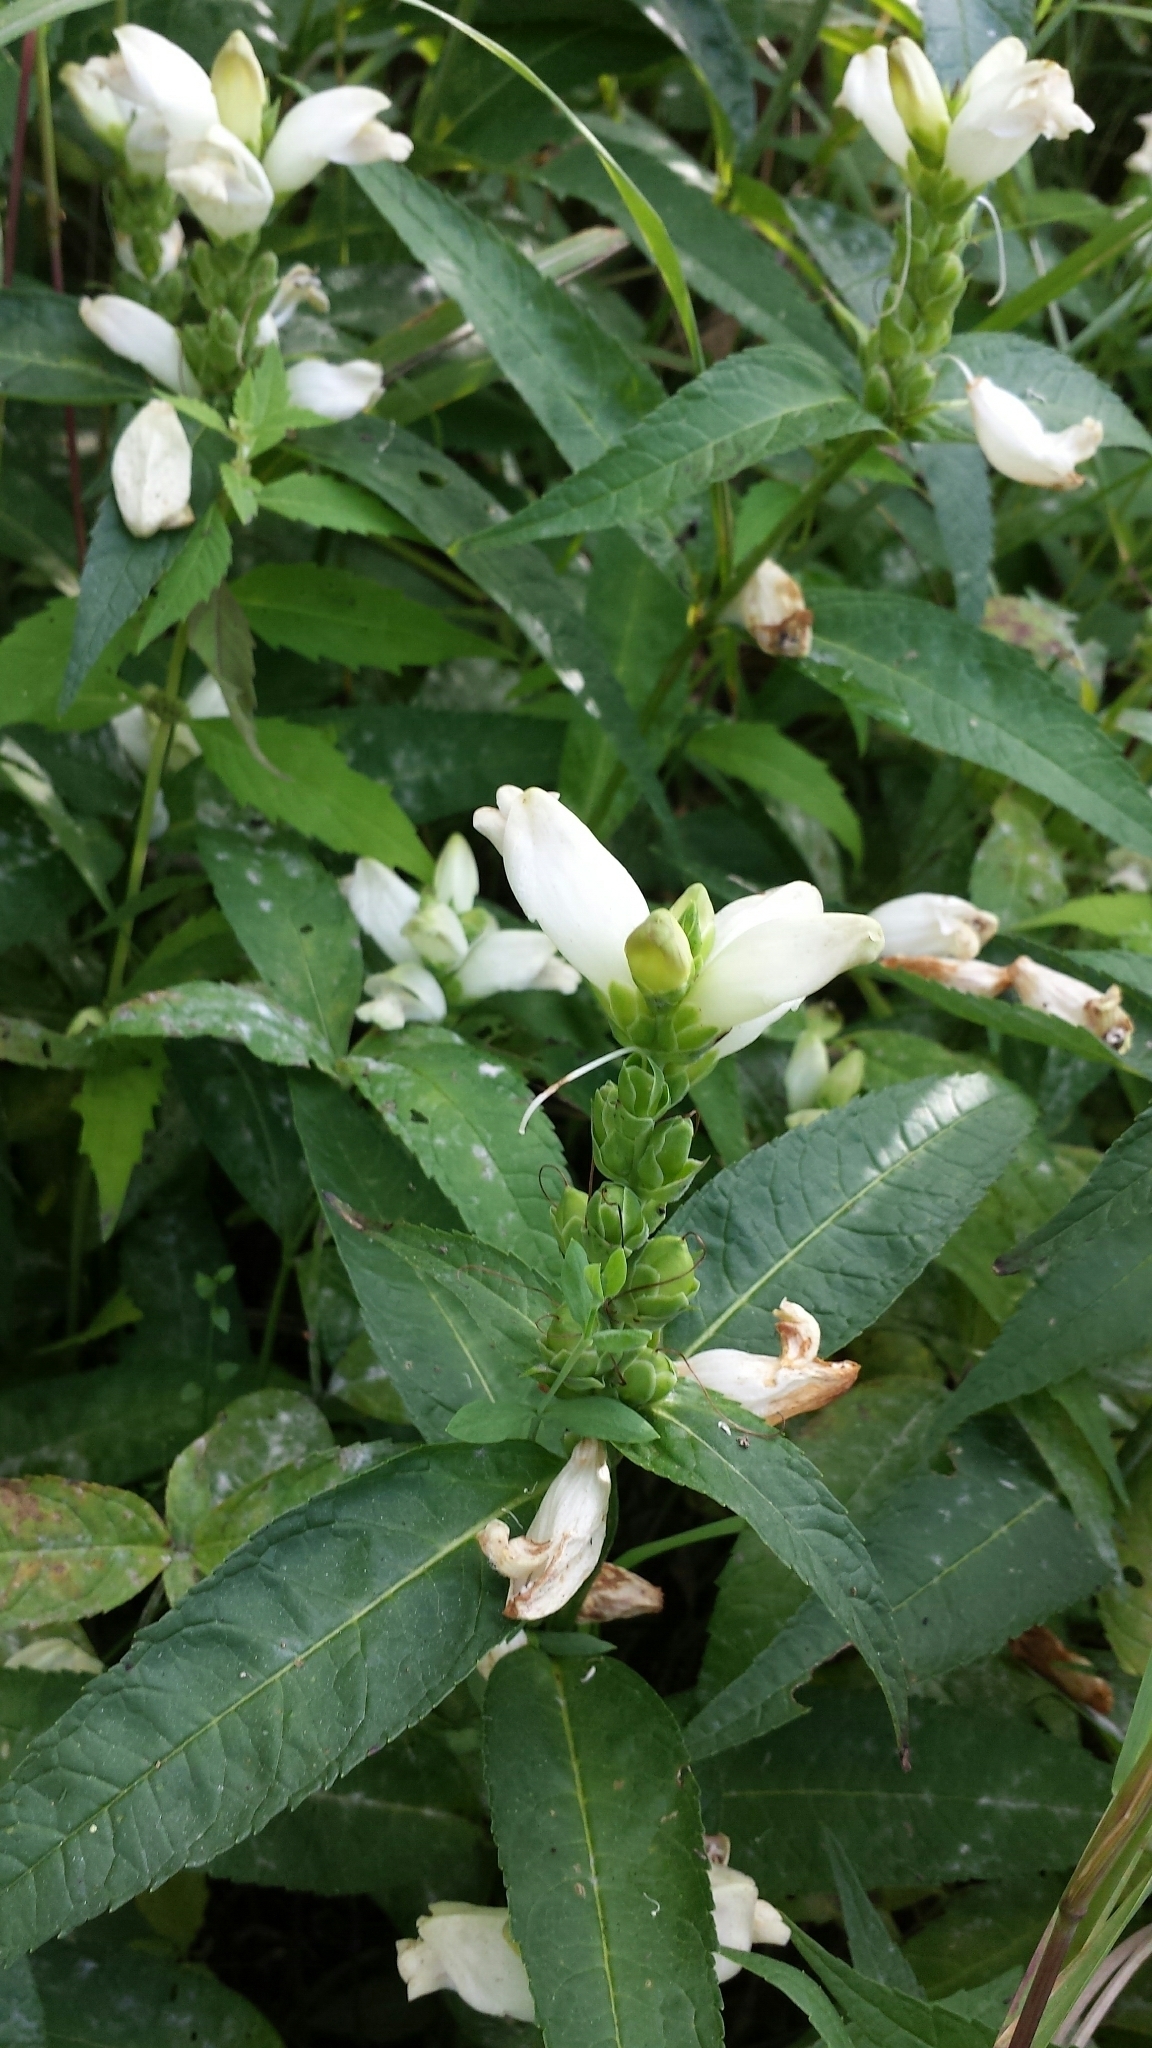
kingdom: Plantae
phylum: Tracheophyta
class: Magnoliopsida
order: Lamiales
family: Plantaginaceae
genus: Chelone
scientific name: Chelone glabra
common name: Snakehead
